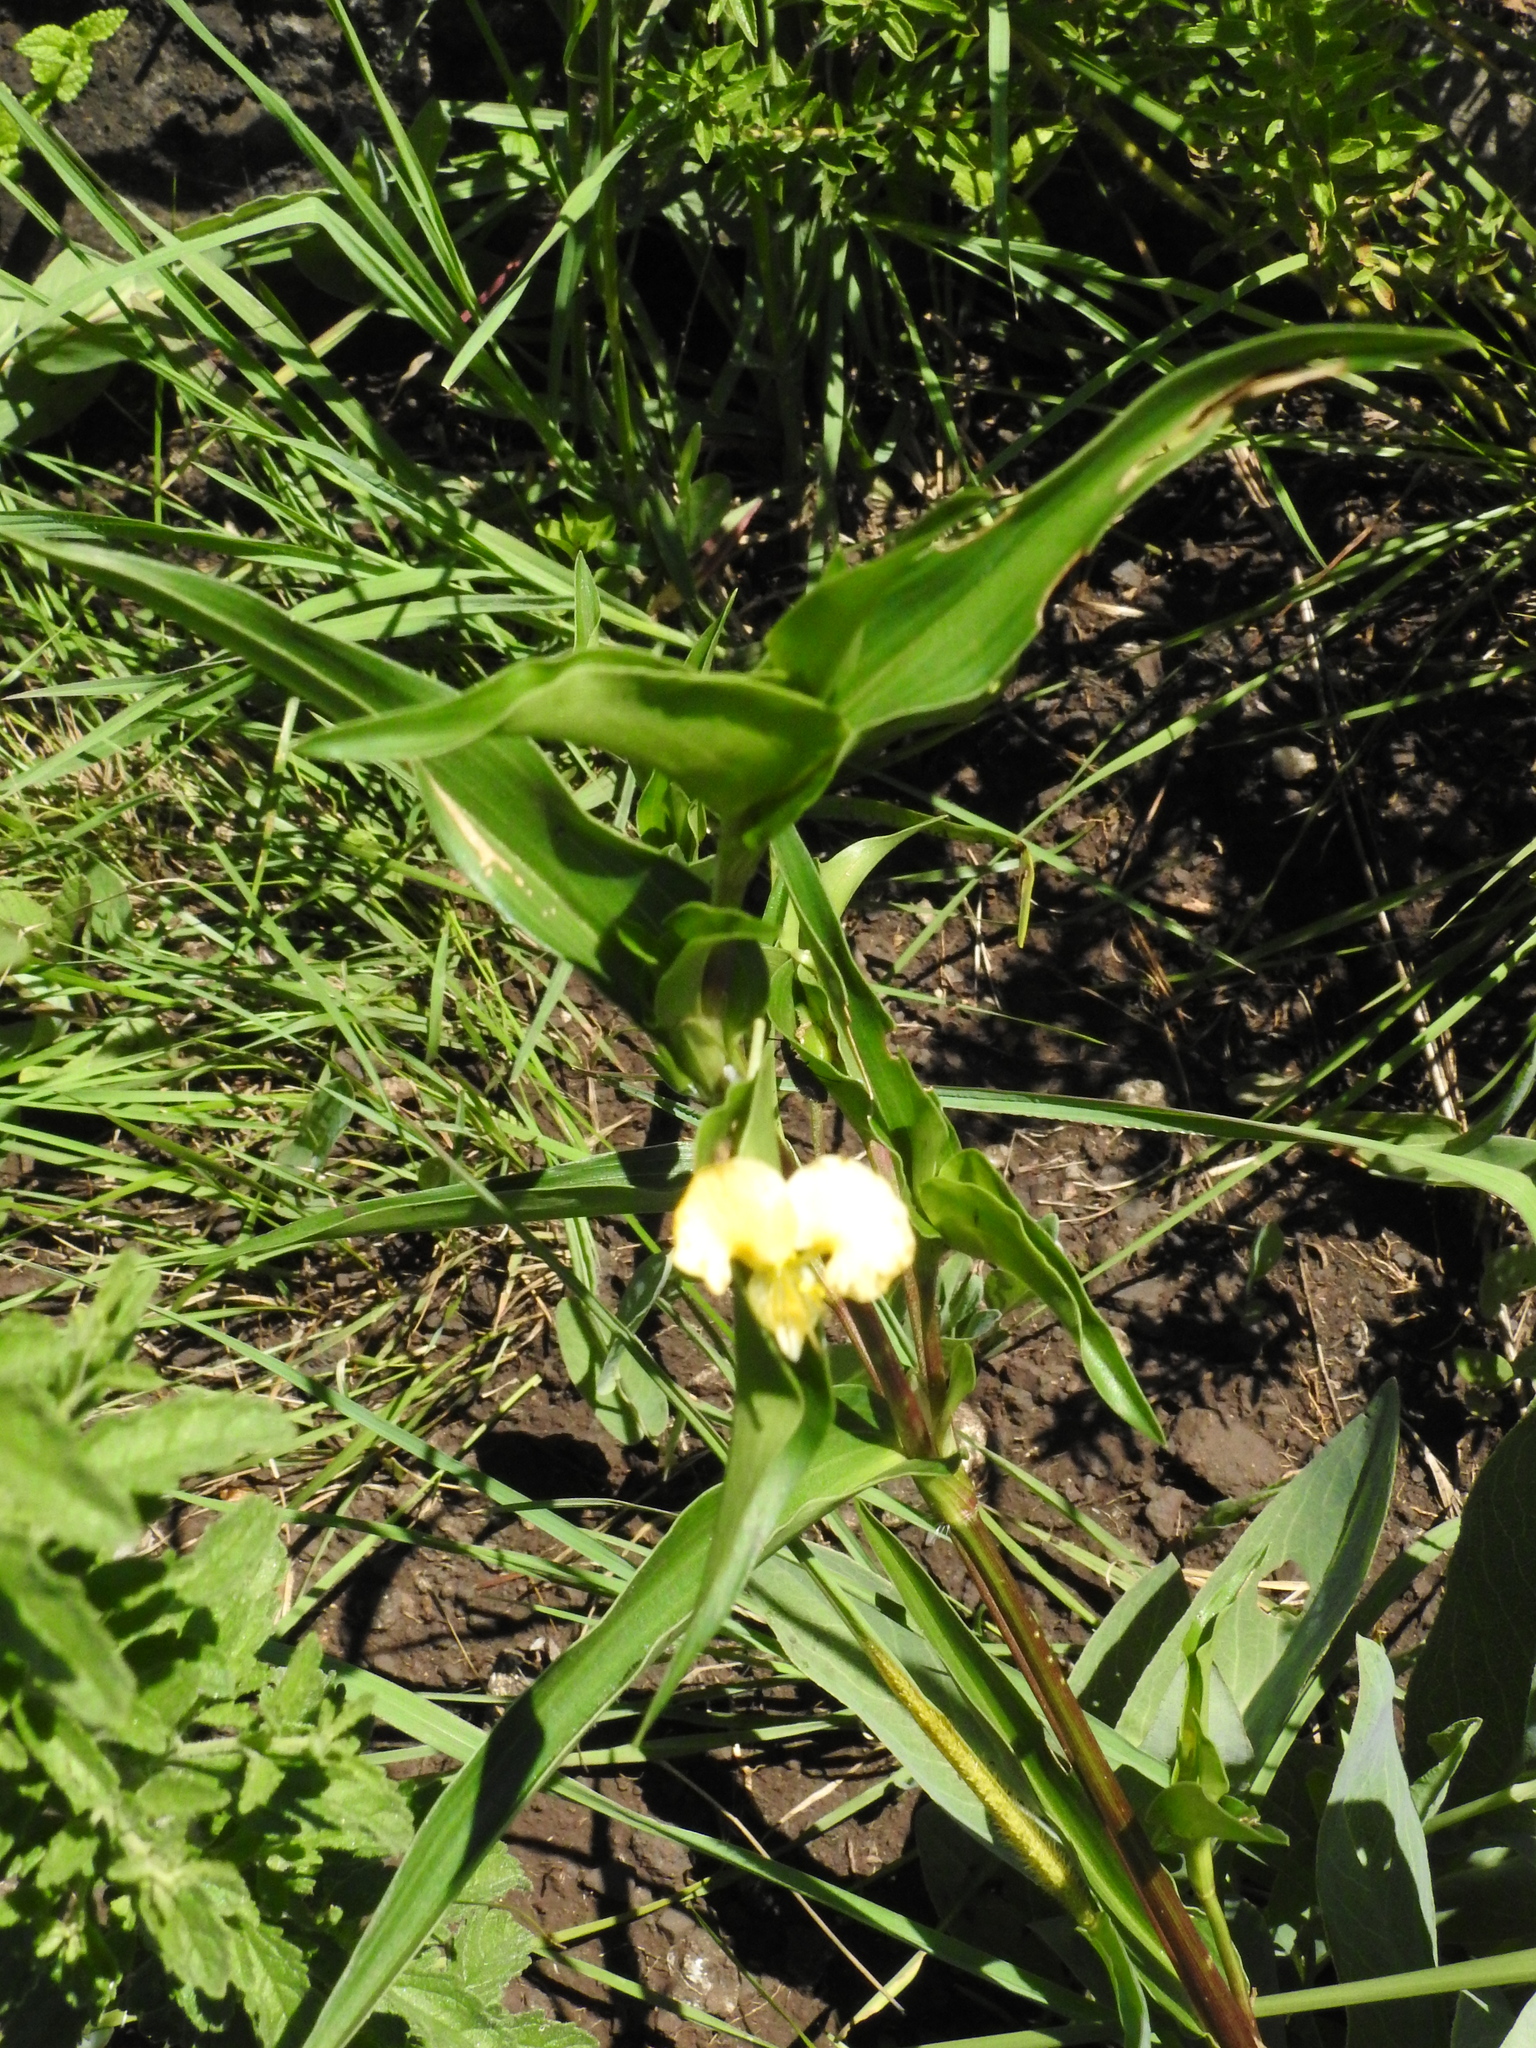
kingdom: Plantae
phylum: Tracheophyta
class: Liliopsida
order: Commelinales
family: Commelinaceae
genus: Commelina
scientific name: Commelina africana
